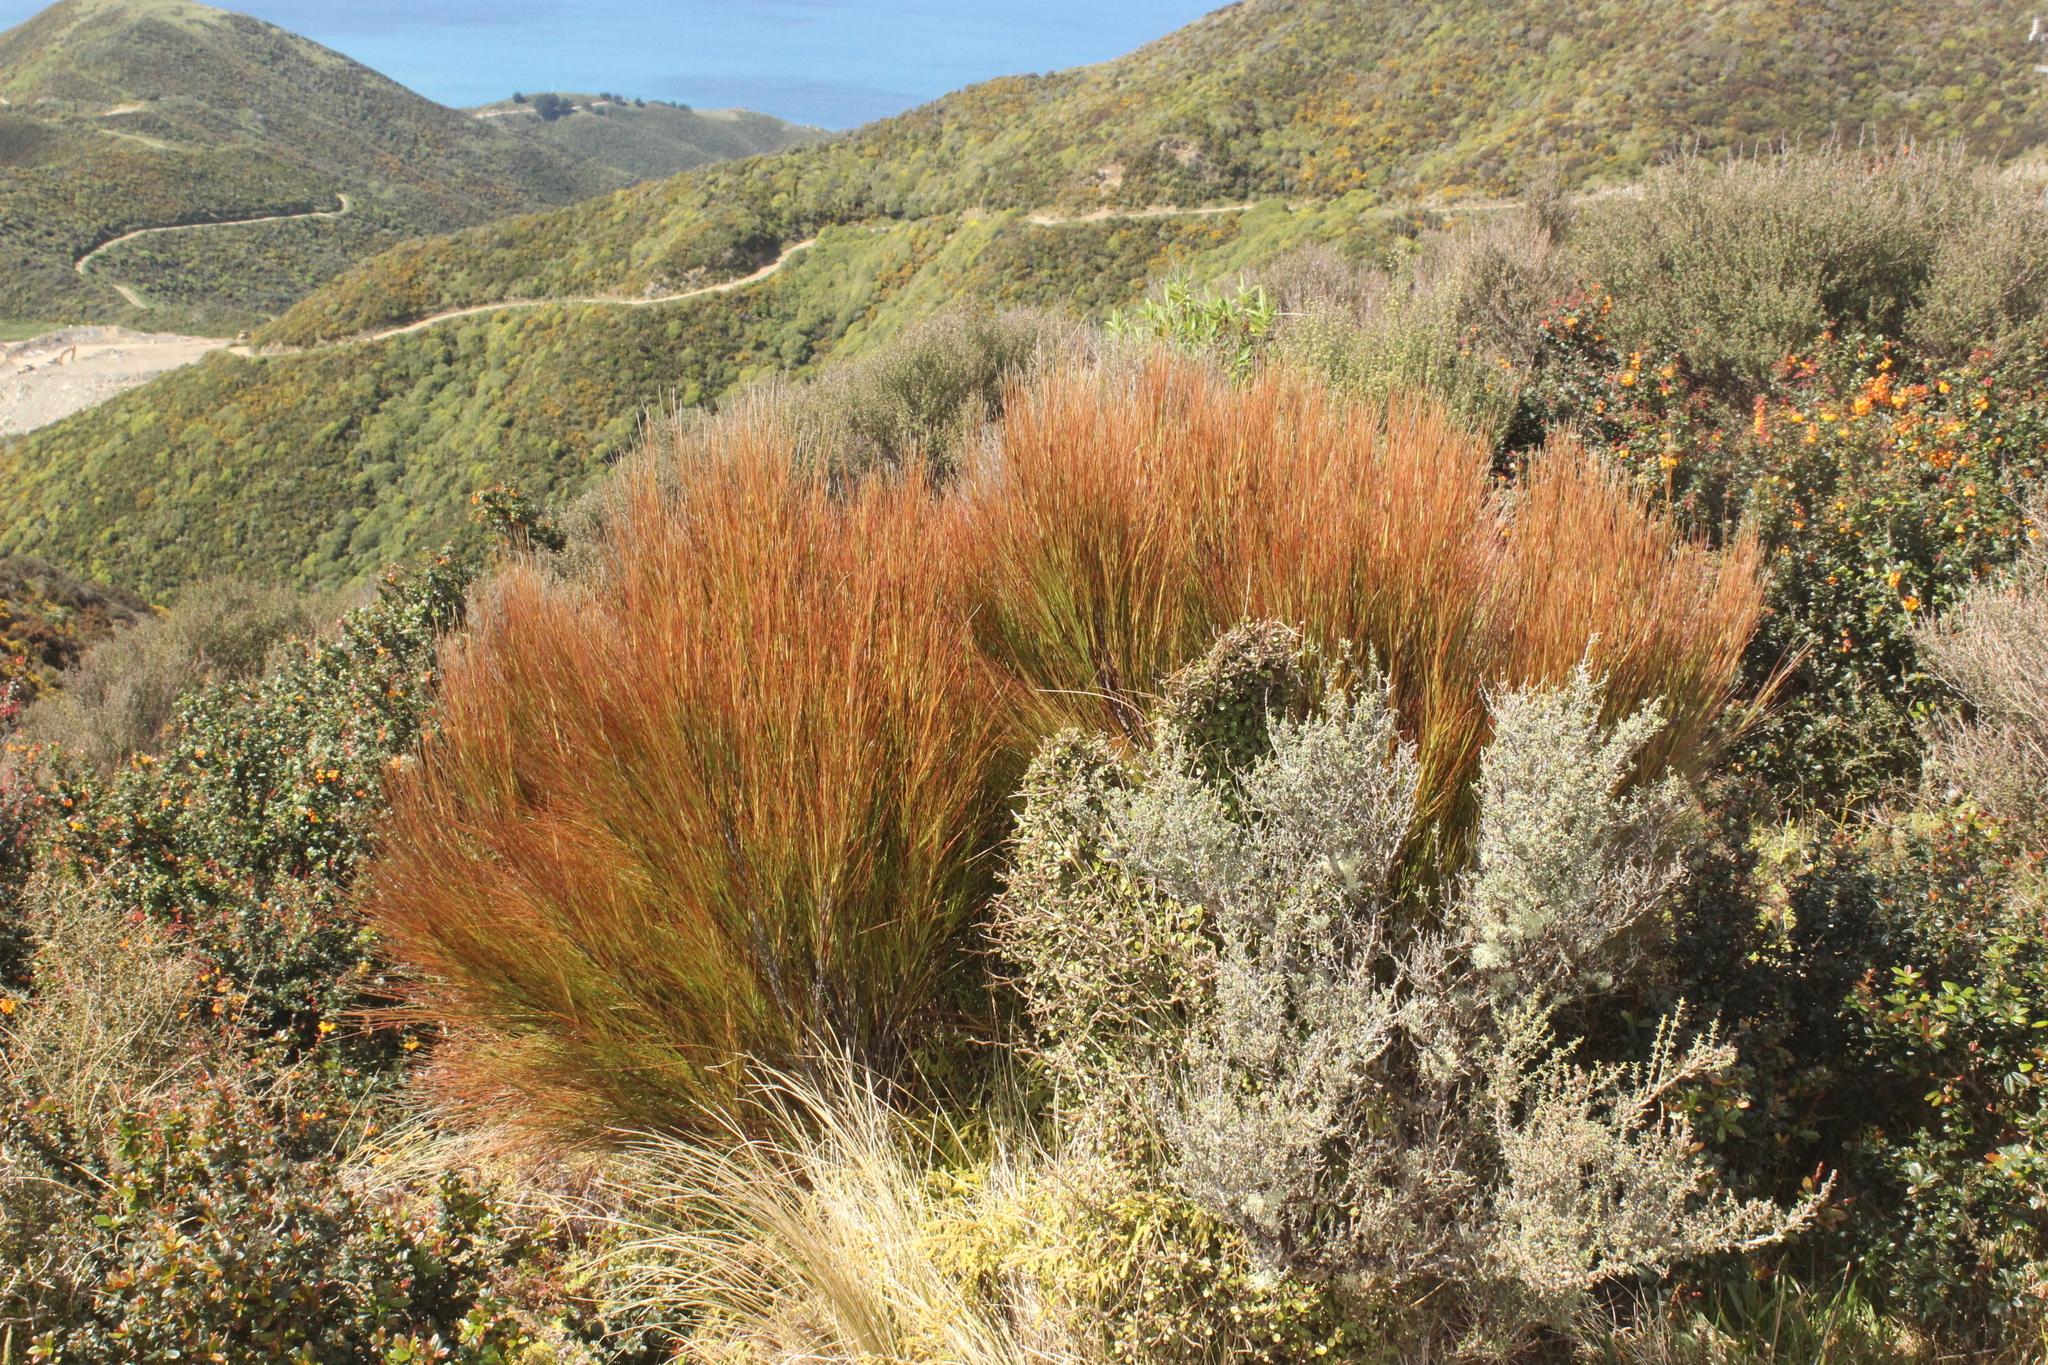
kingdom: Plantae
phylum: Tracheophyta
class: Magnoliopsida
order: Ericales
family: Ericaceae
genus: Dracophyllum
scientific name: Dracophyllum filifolium
